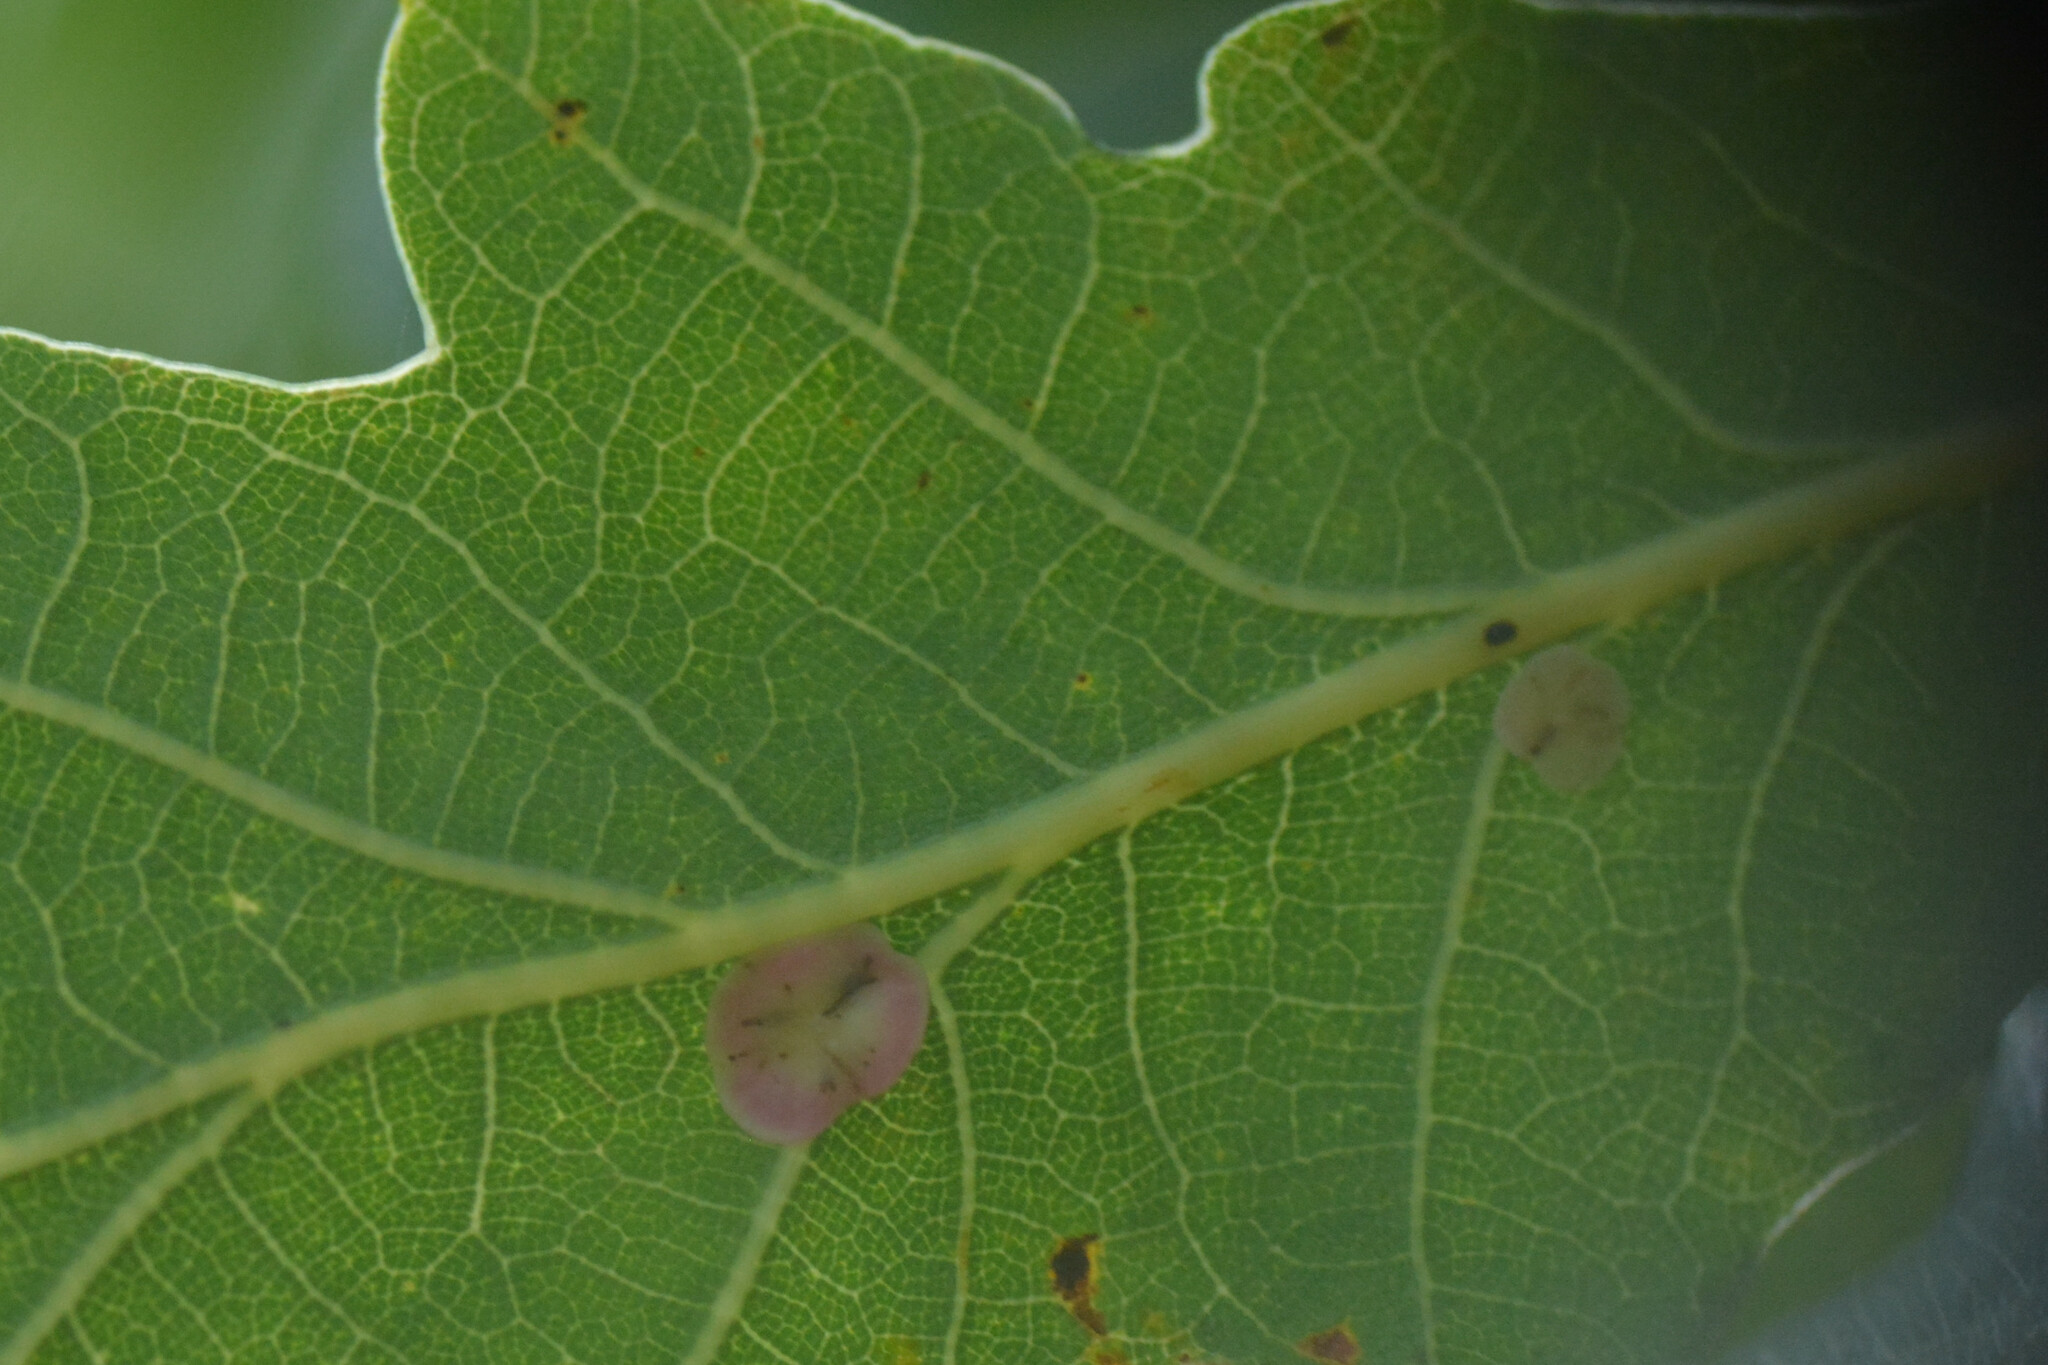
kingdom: Animalia
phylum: Arthropoda
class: Insecta
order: Hymenoptera
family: Cynipidae
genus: Neuroterus
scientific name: Neuroterus albipes
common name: Smooth spangle gall
